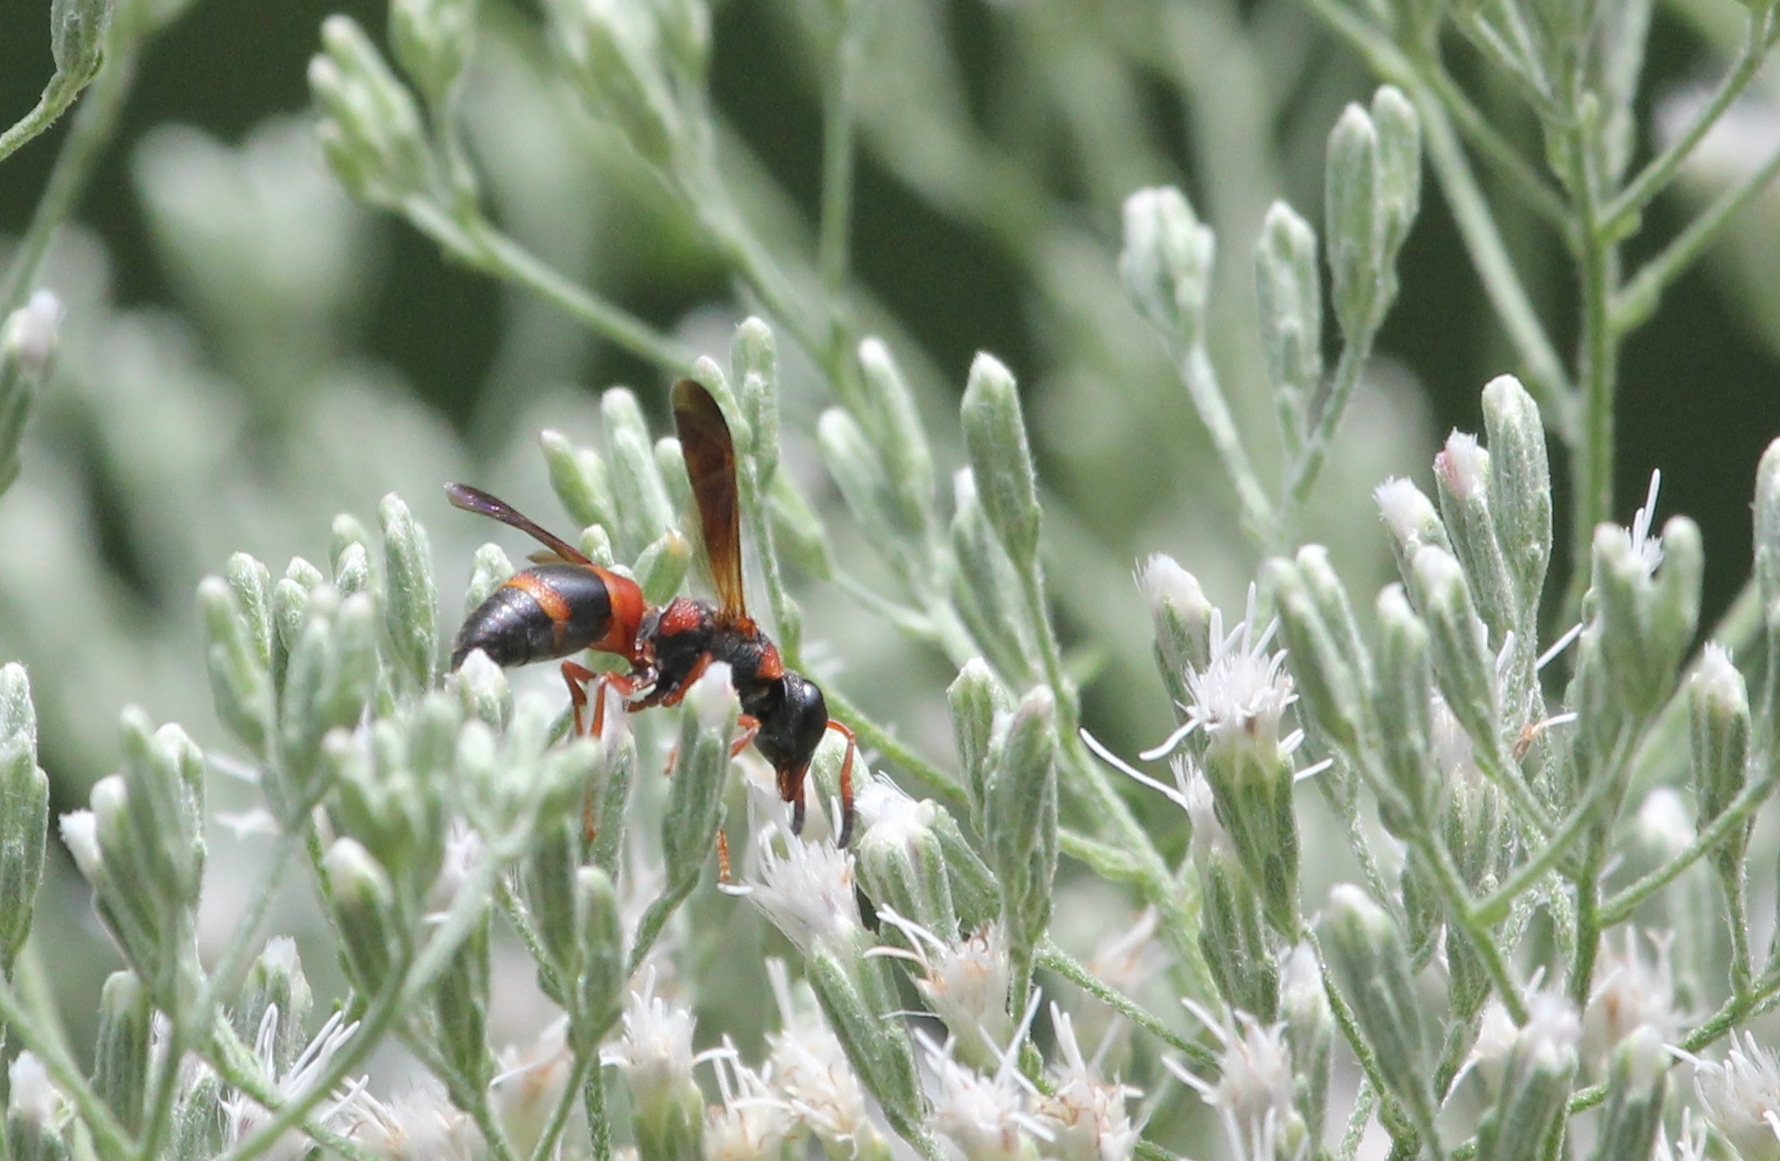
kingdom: Animalia
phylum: Arthropoda
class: Insecta
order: Hymenoptera
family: Eumenidae
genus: Pachodynerus
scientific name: Pachodynerus erynnis
